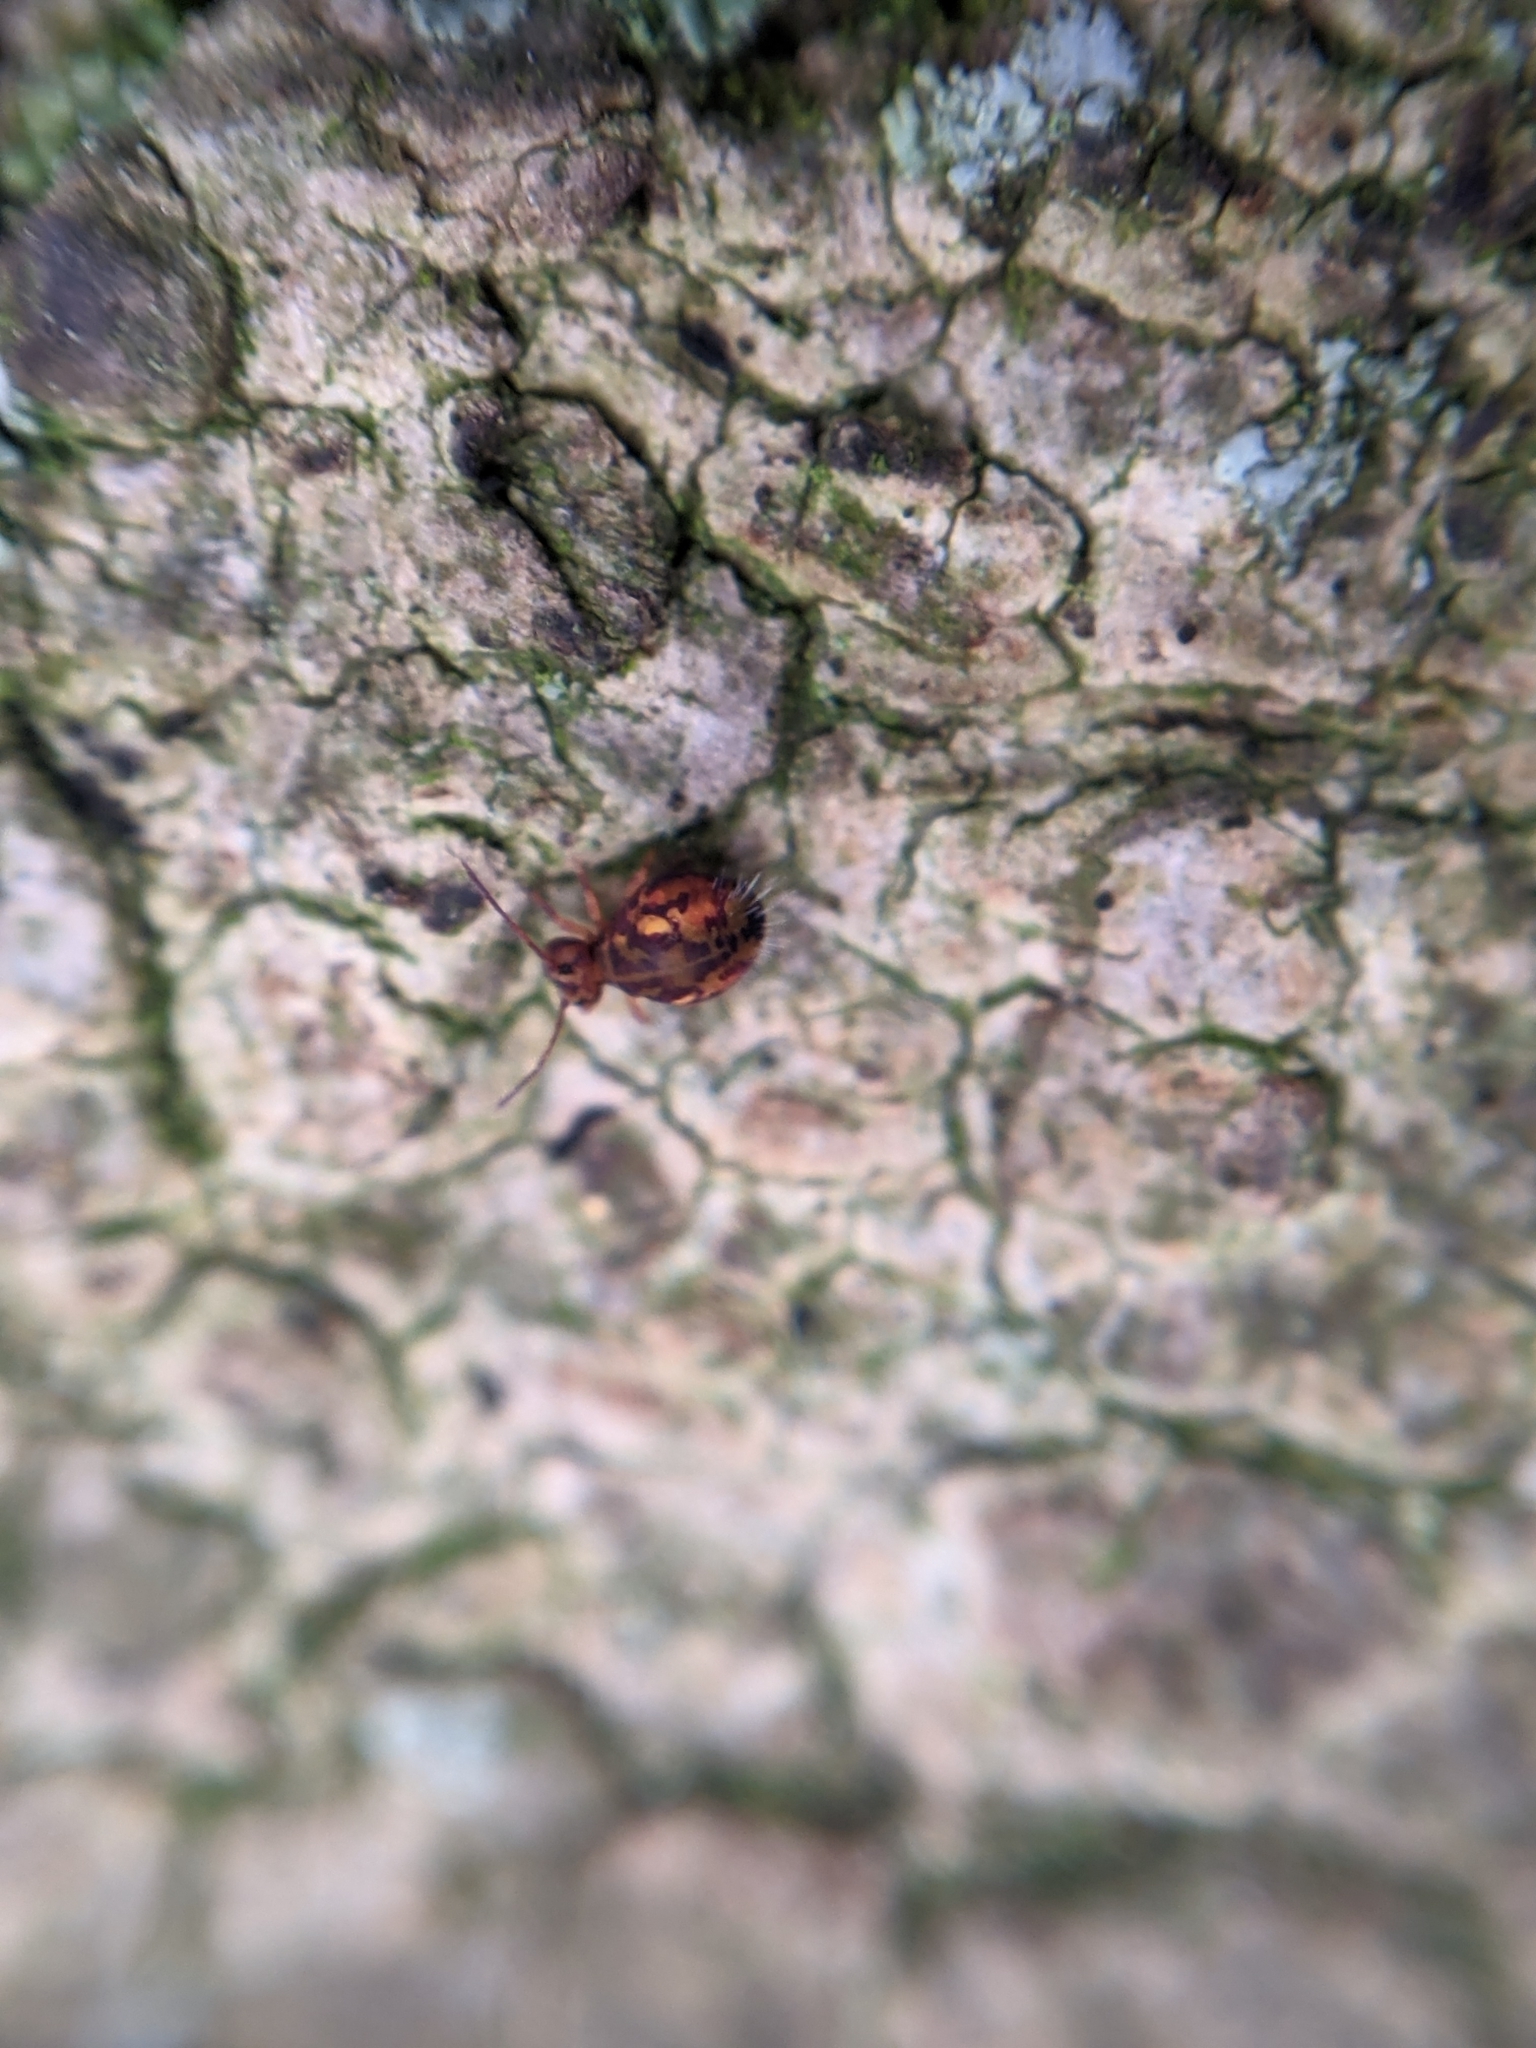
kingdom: Animalia
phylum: Arthropoda
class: Collembola
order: Symphypleona
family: Dicyrtomidae
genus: Dicyrtomina
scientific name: Dicyrtomina ornata
